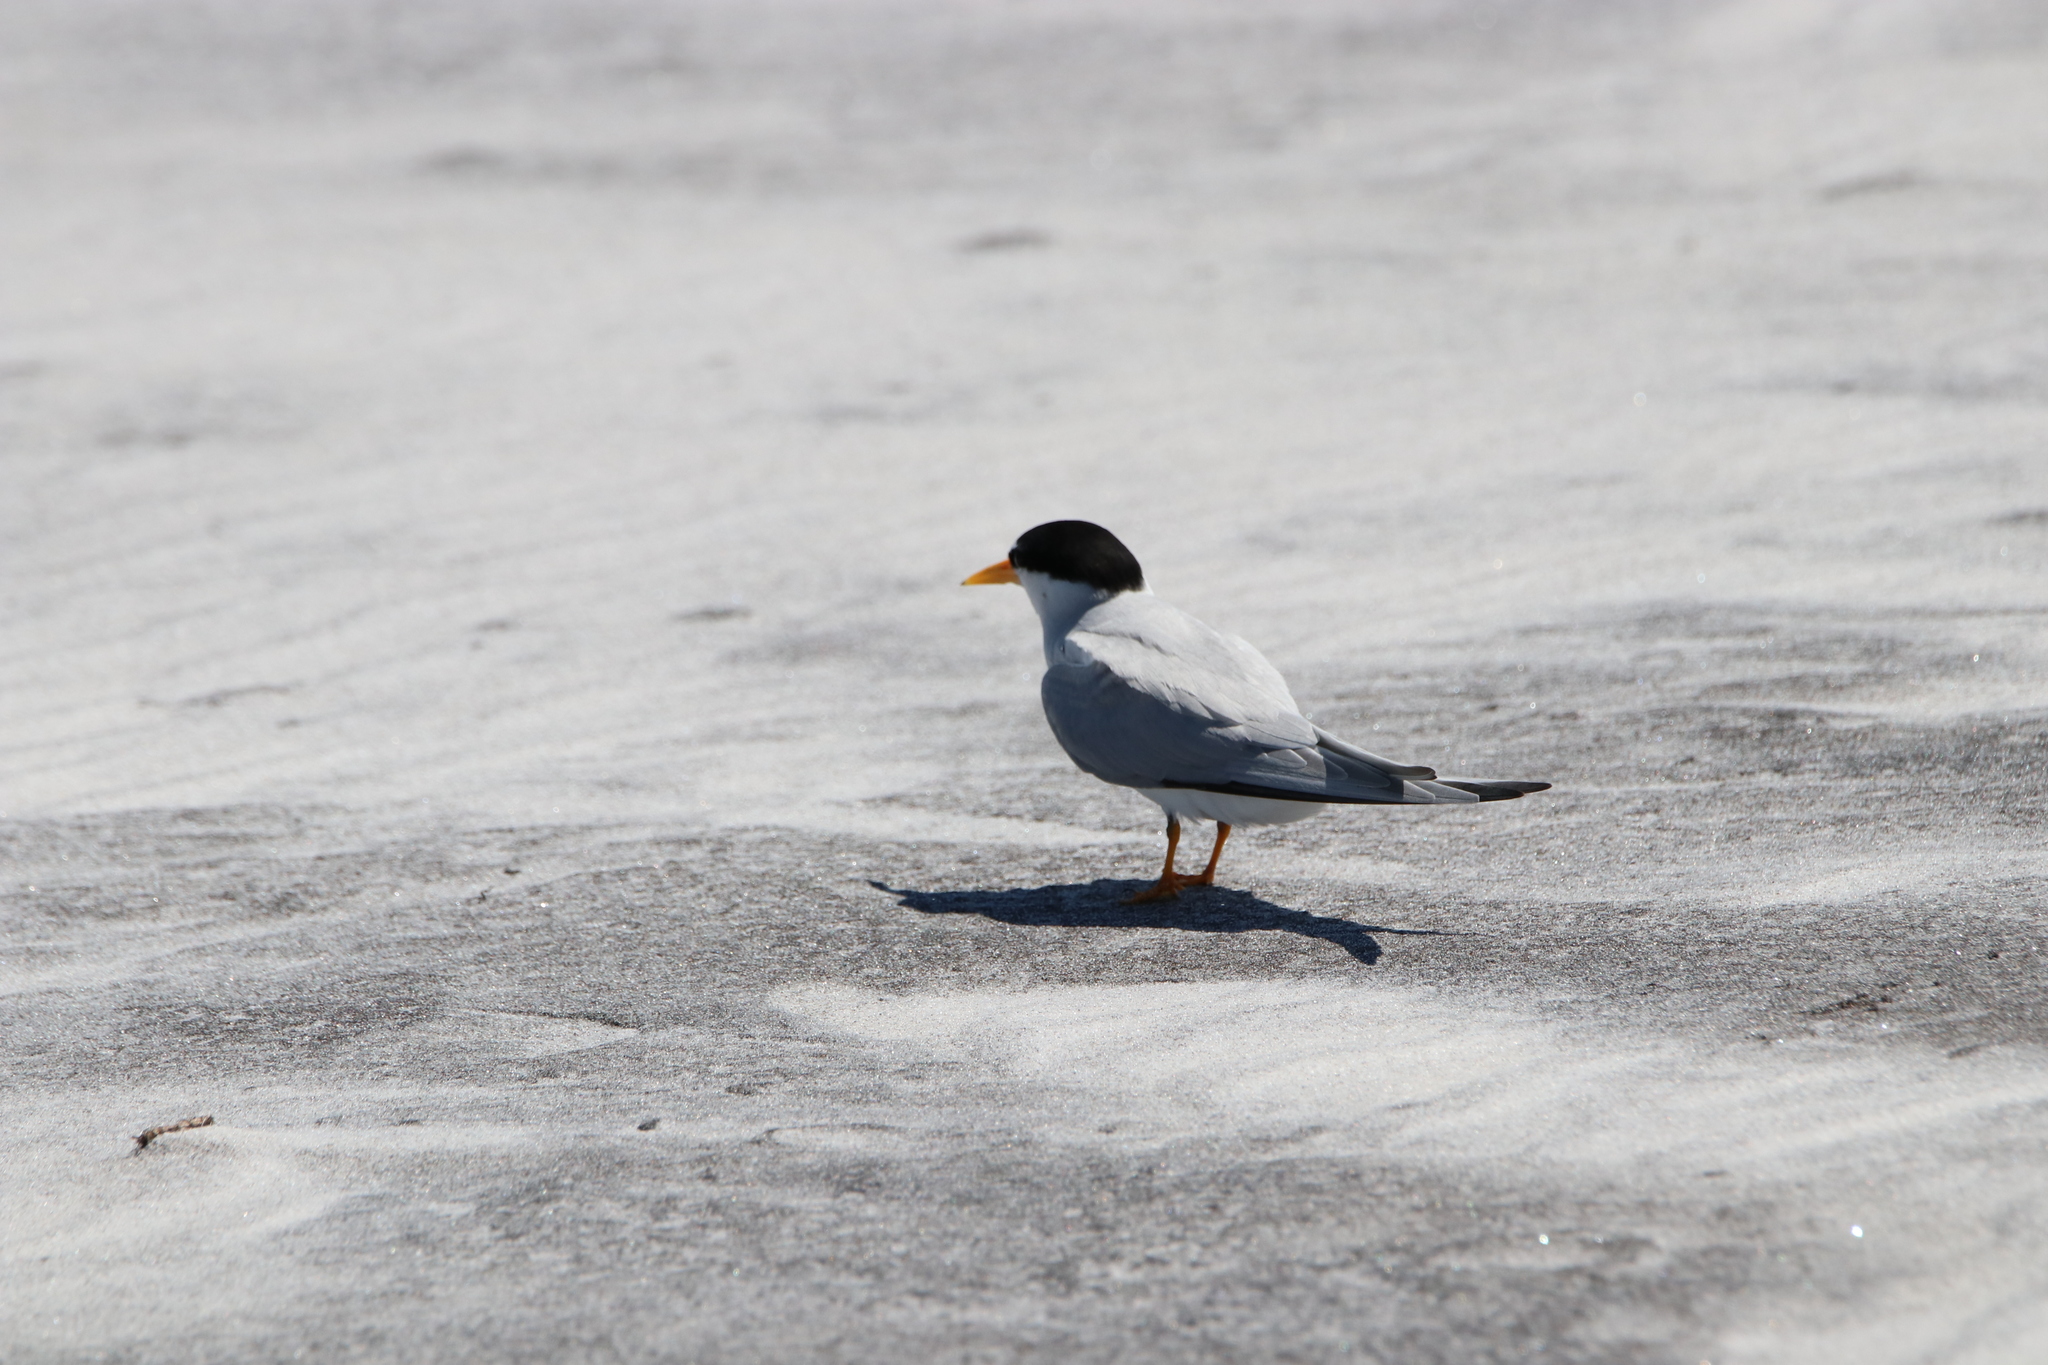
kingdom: Animalia
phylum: Chordata
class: Aves
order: Charadriiformes
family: Laridae
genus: Sternula
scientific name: Sternula antillarum
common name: Least tern
